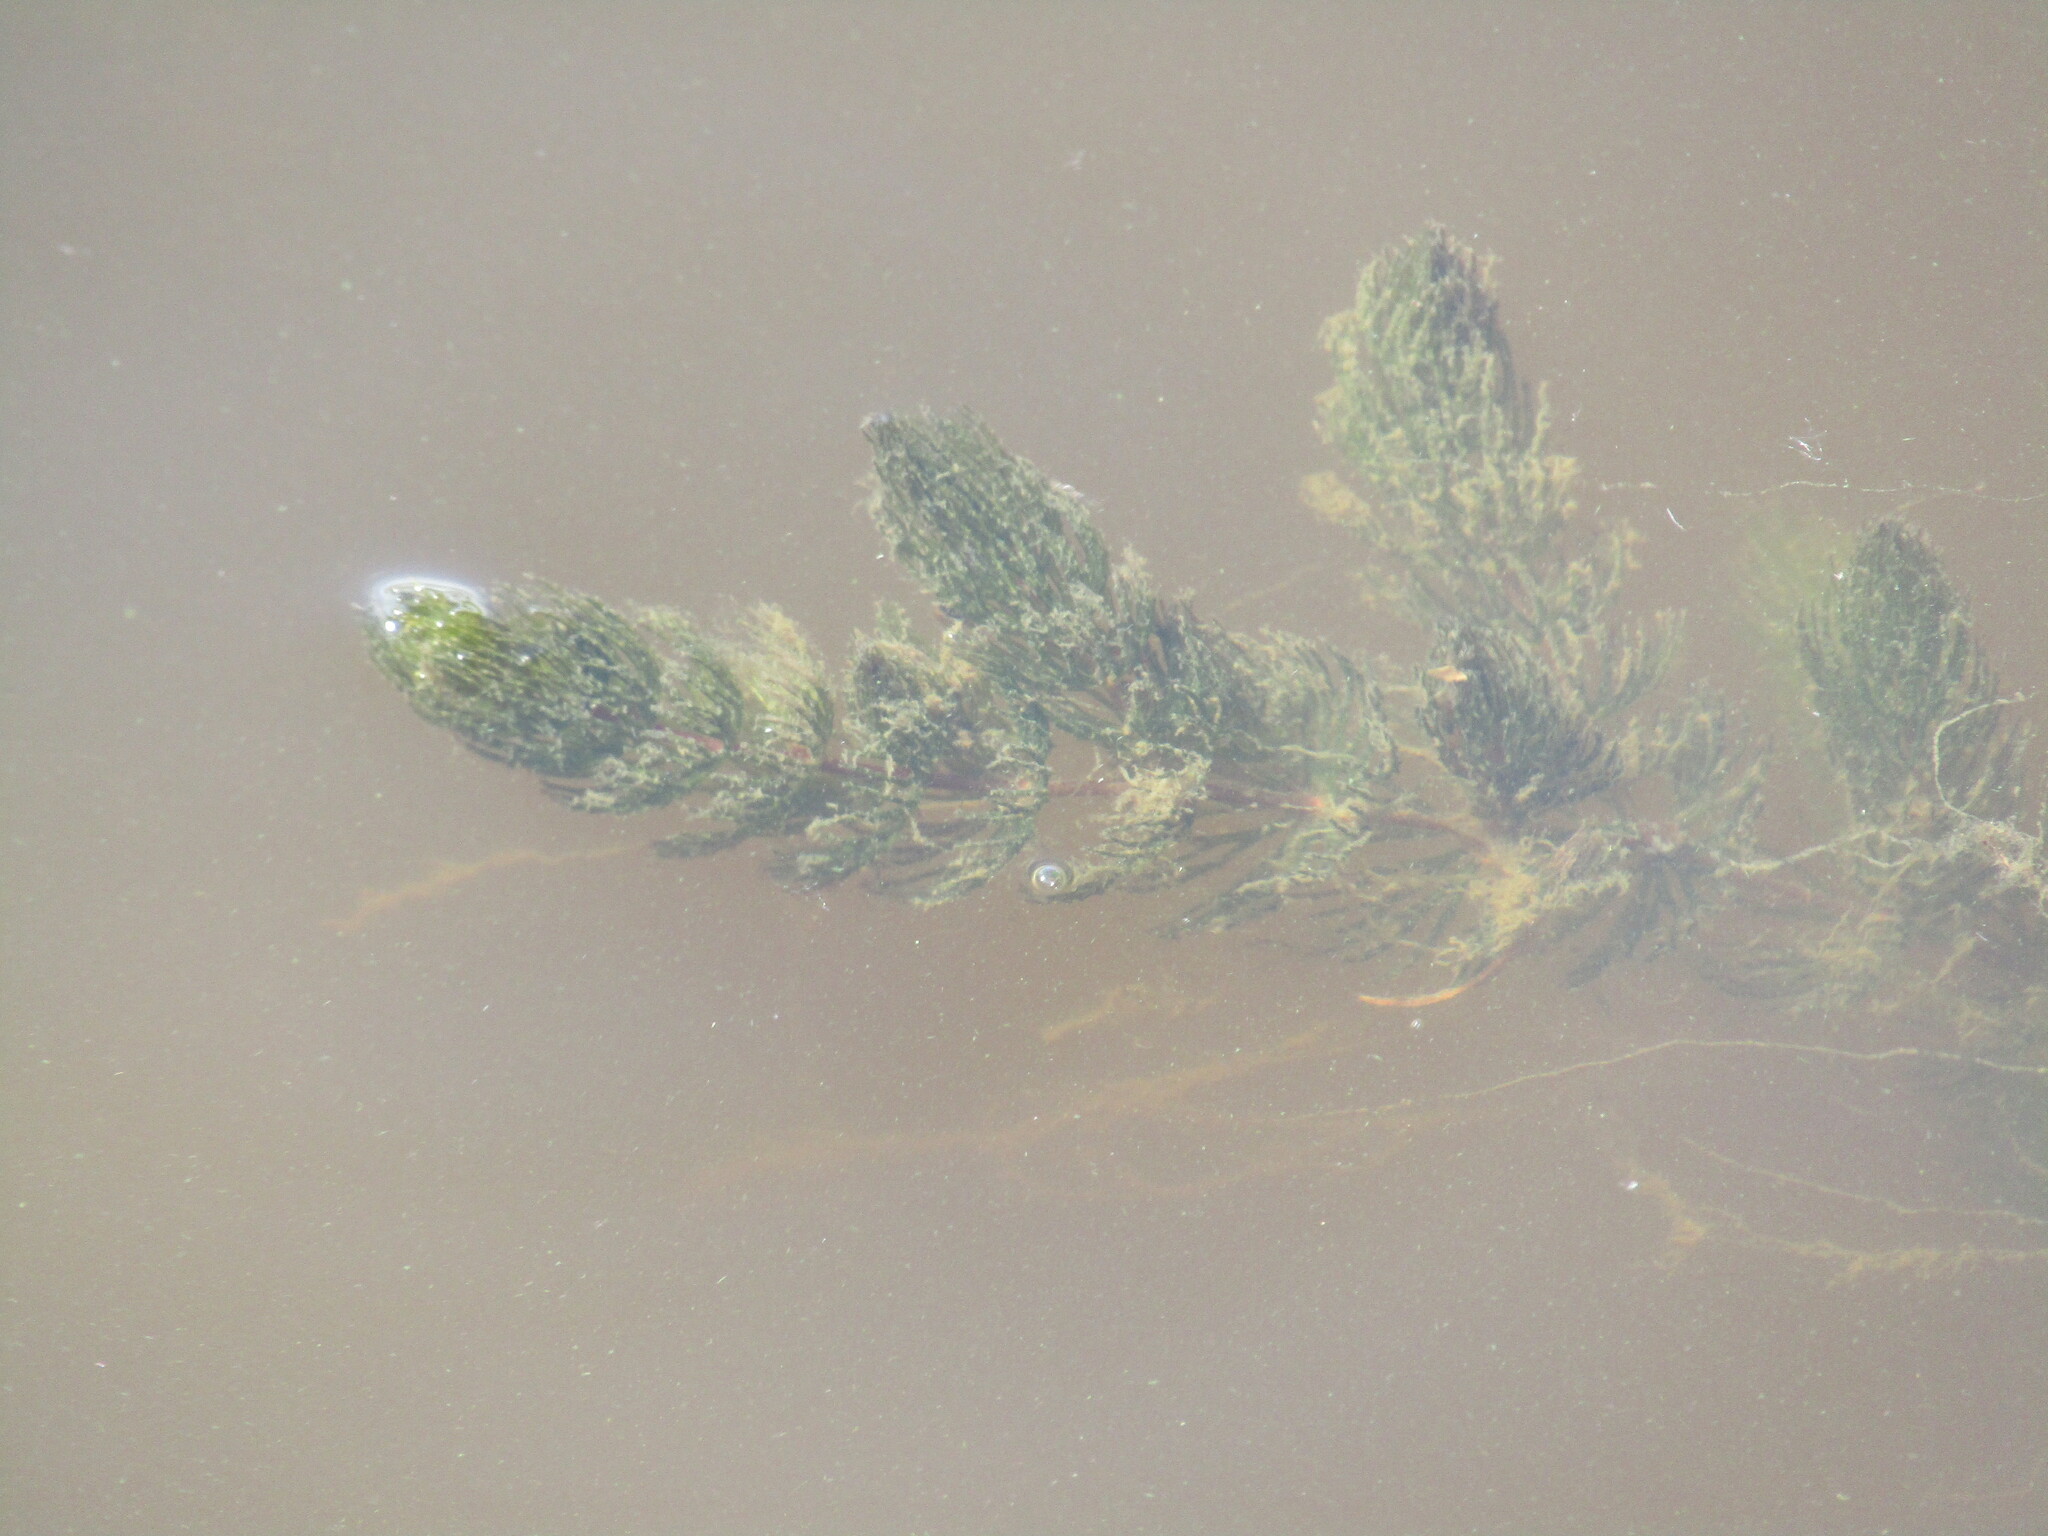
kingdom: Plantae
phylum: Tracheophyta
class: Magnoliopsida
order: Ceratophyllales
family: Ceratophyllaceae
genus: Ceratophyllum
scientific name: Ceratophyllum demersum
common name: Rigid hornwort
